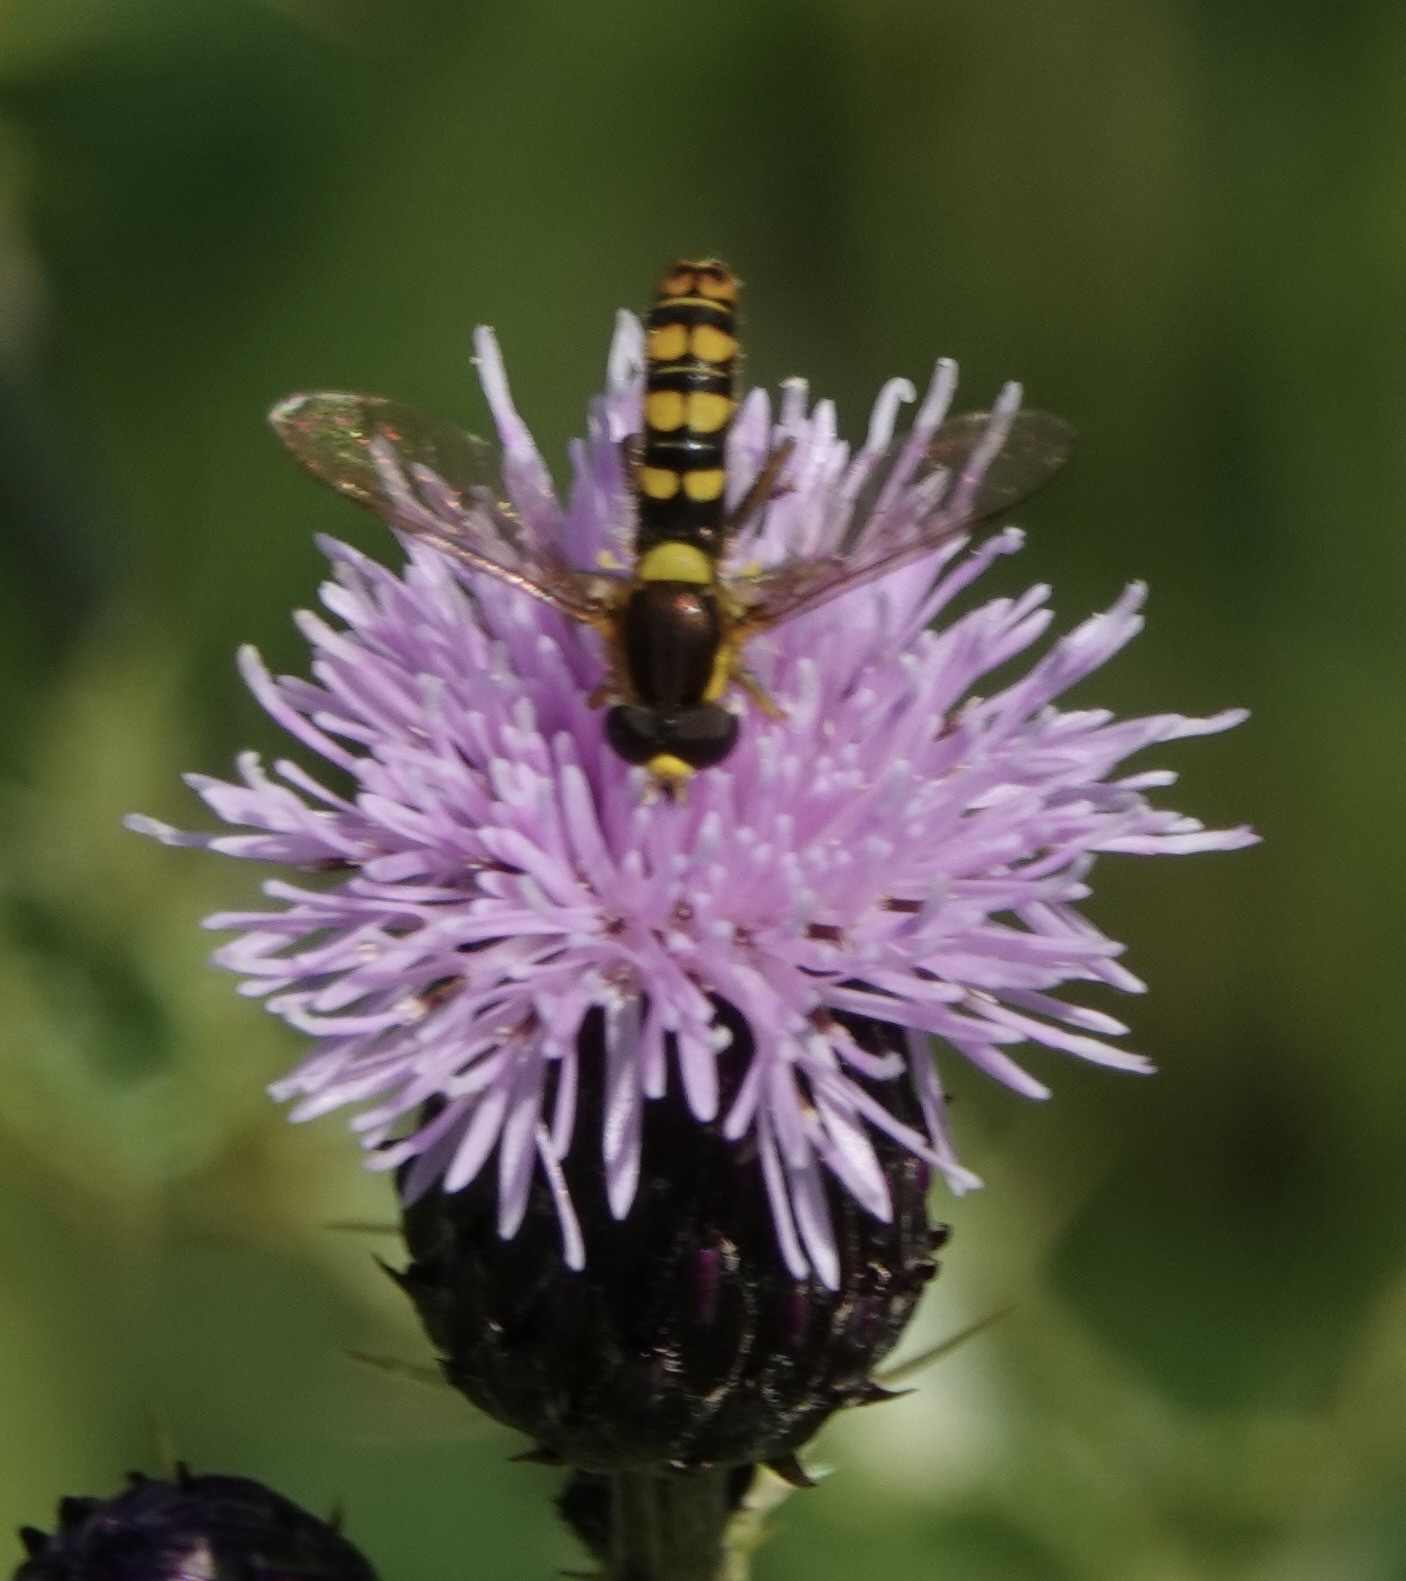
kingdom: Animalia
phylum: Arthropoda
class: Insecta
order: Diptera
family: Syrphidae
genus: Sphaerophoria
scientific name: Sphaerophoria
